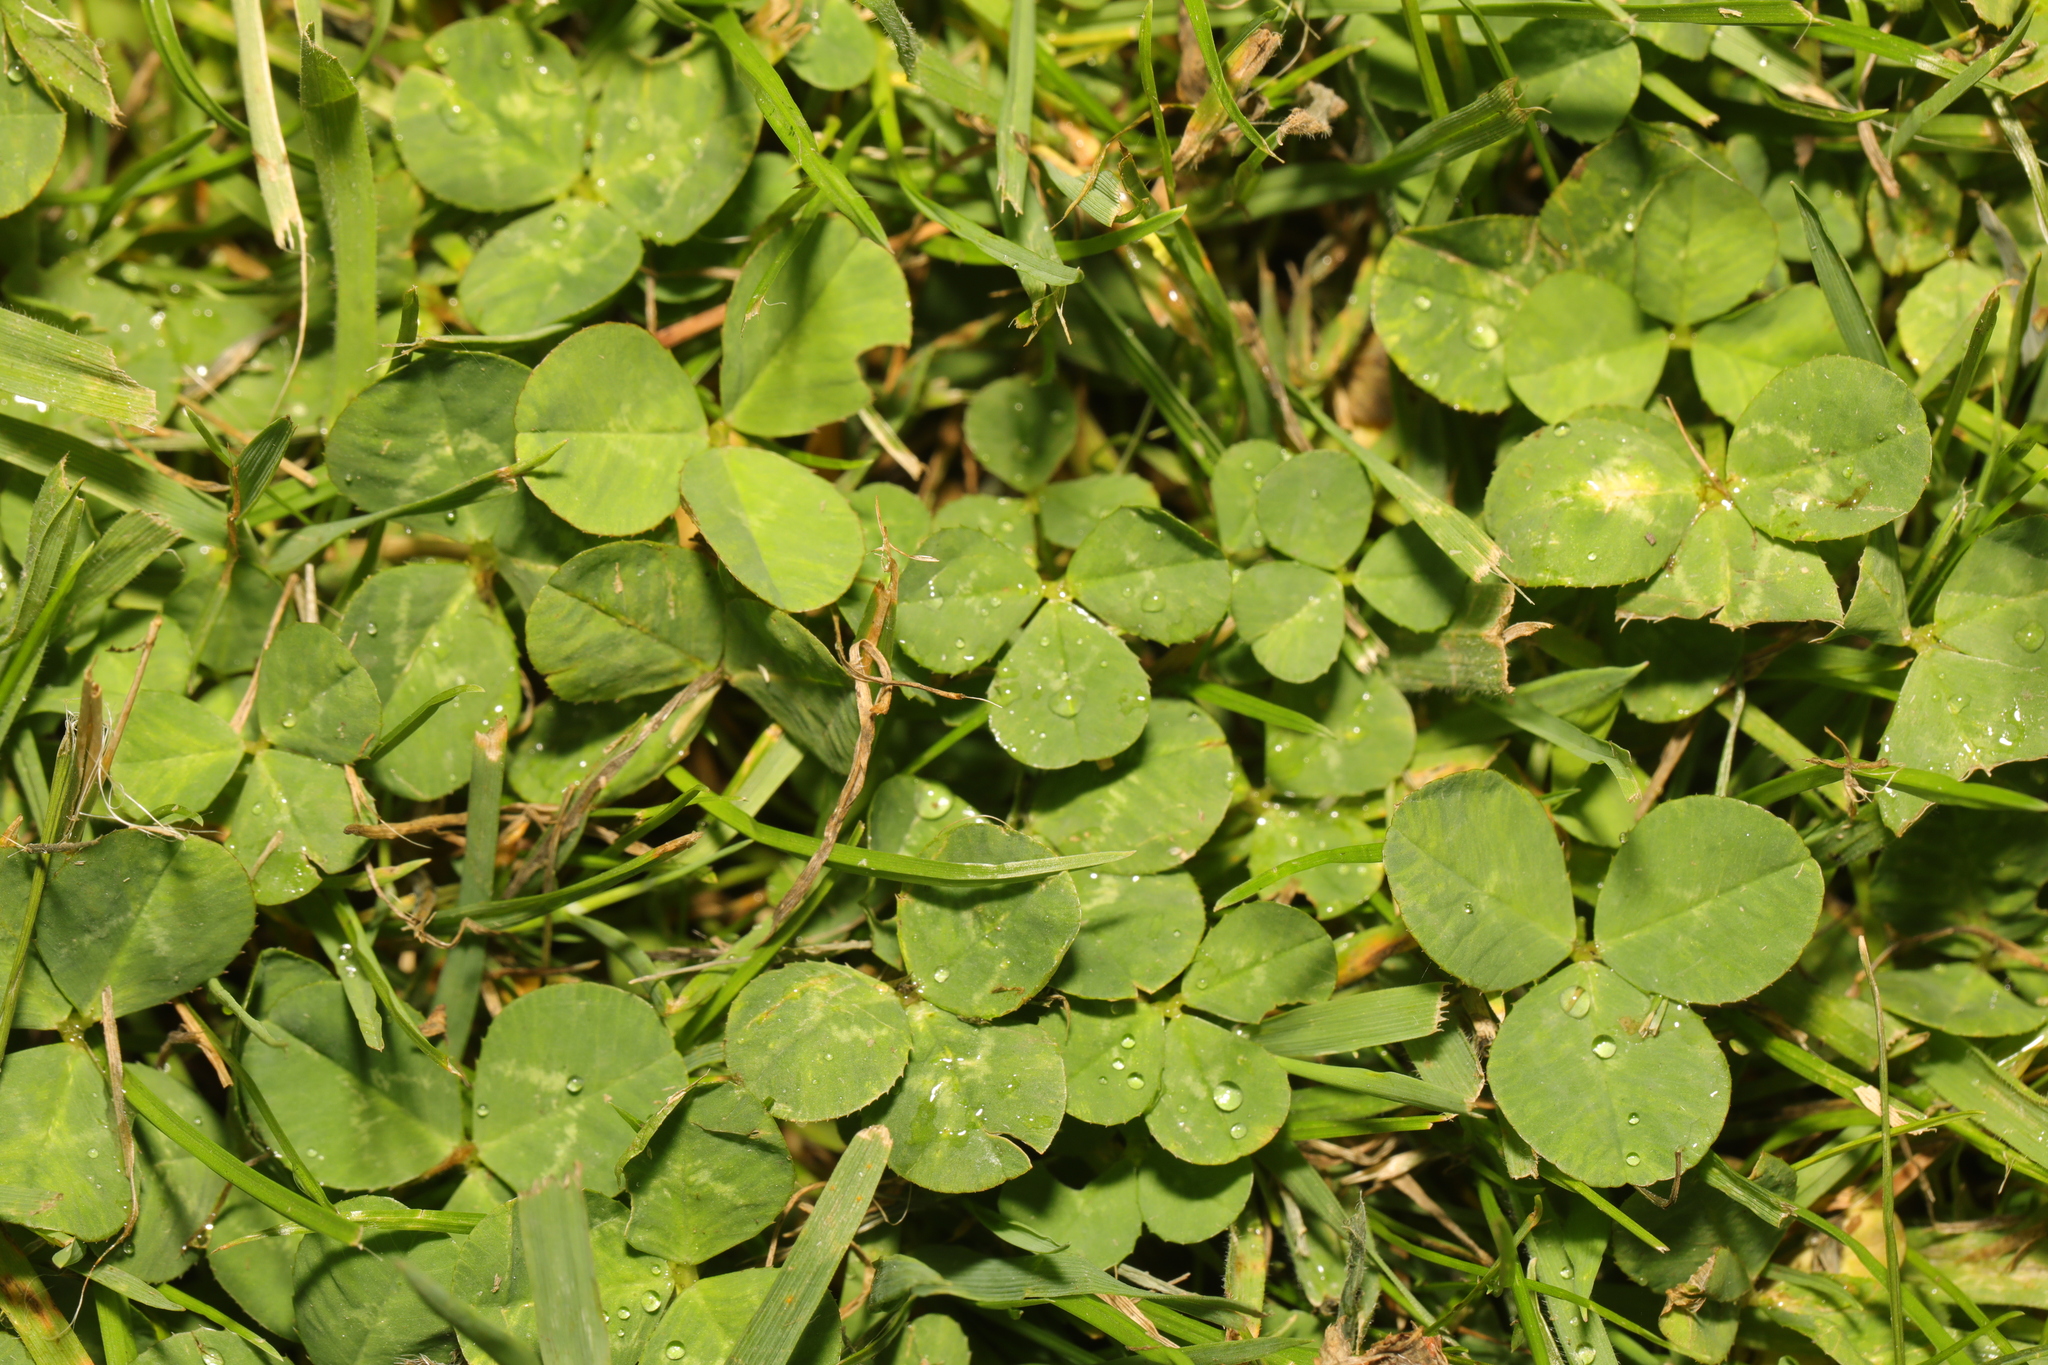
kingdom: Plantae
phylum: Tracheophyta
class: Magnoliopsida
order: Fabales
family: Fabaceae
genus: Trifolium
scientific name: Trifolium repens
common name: White clover
